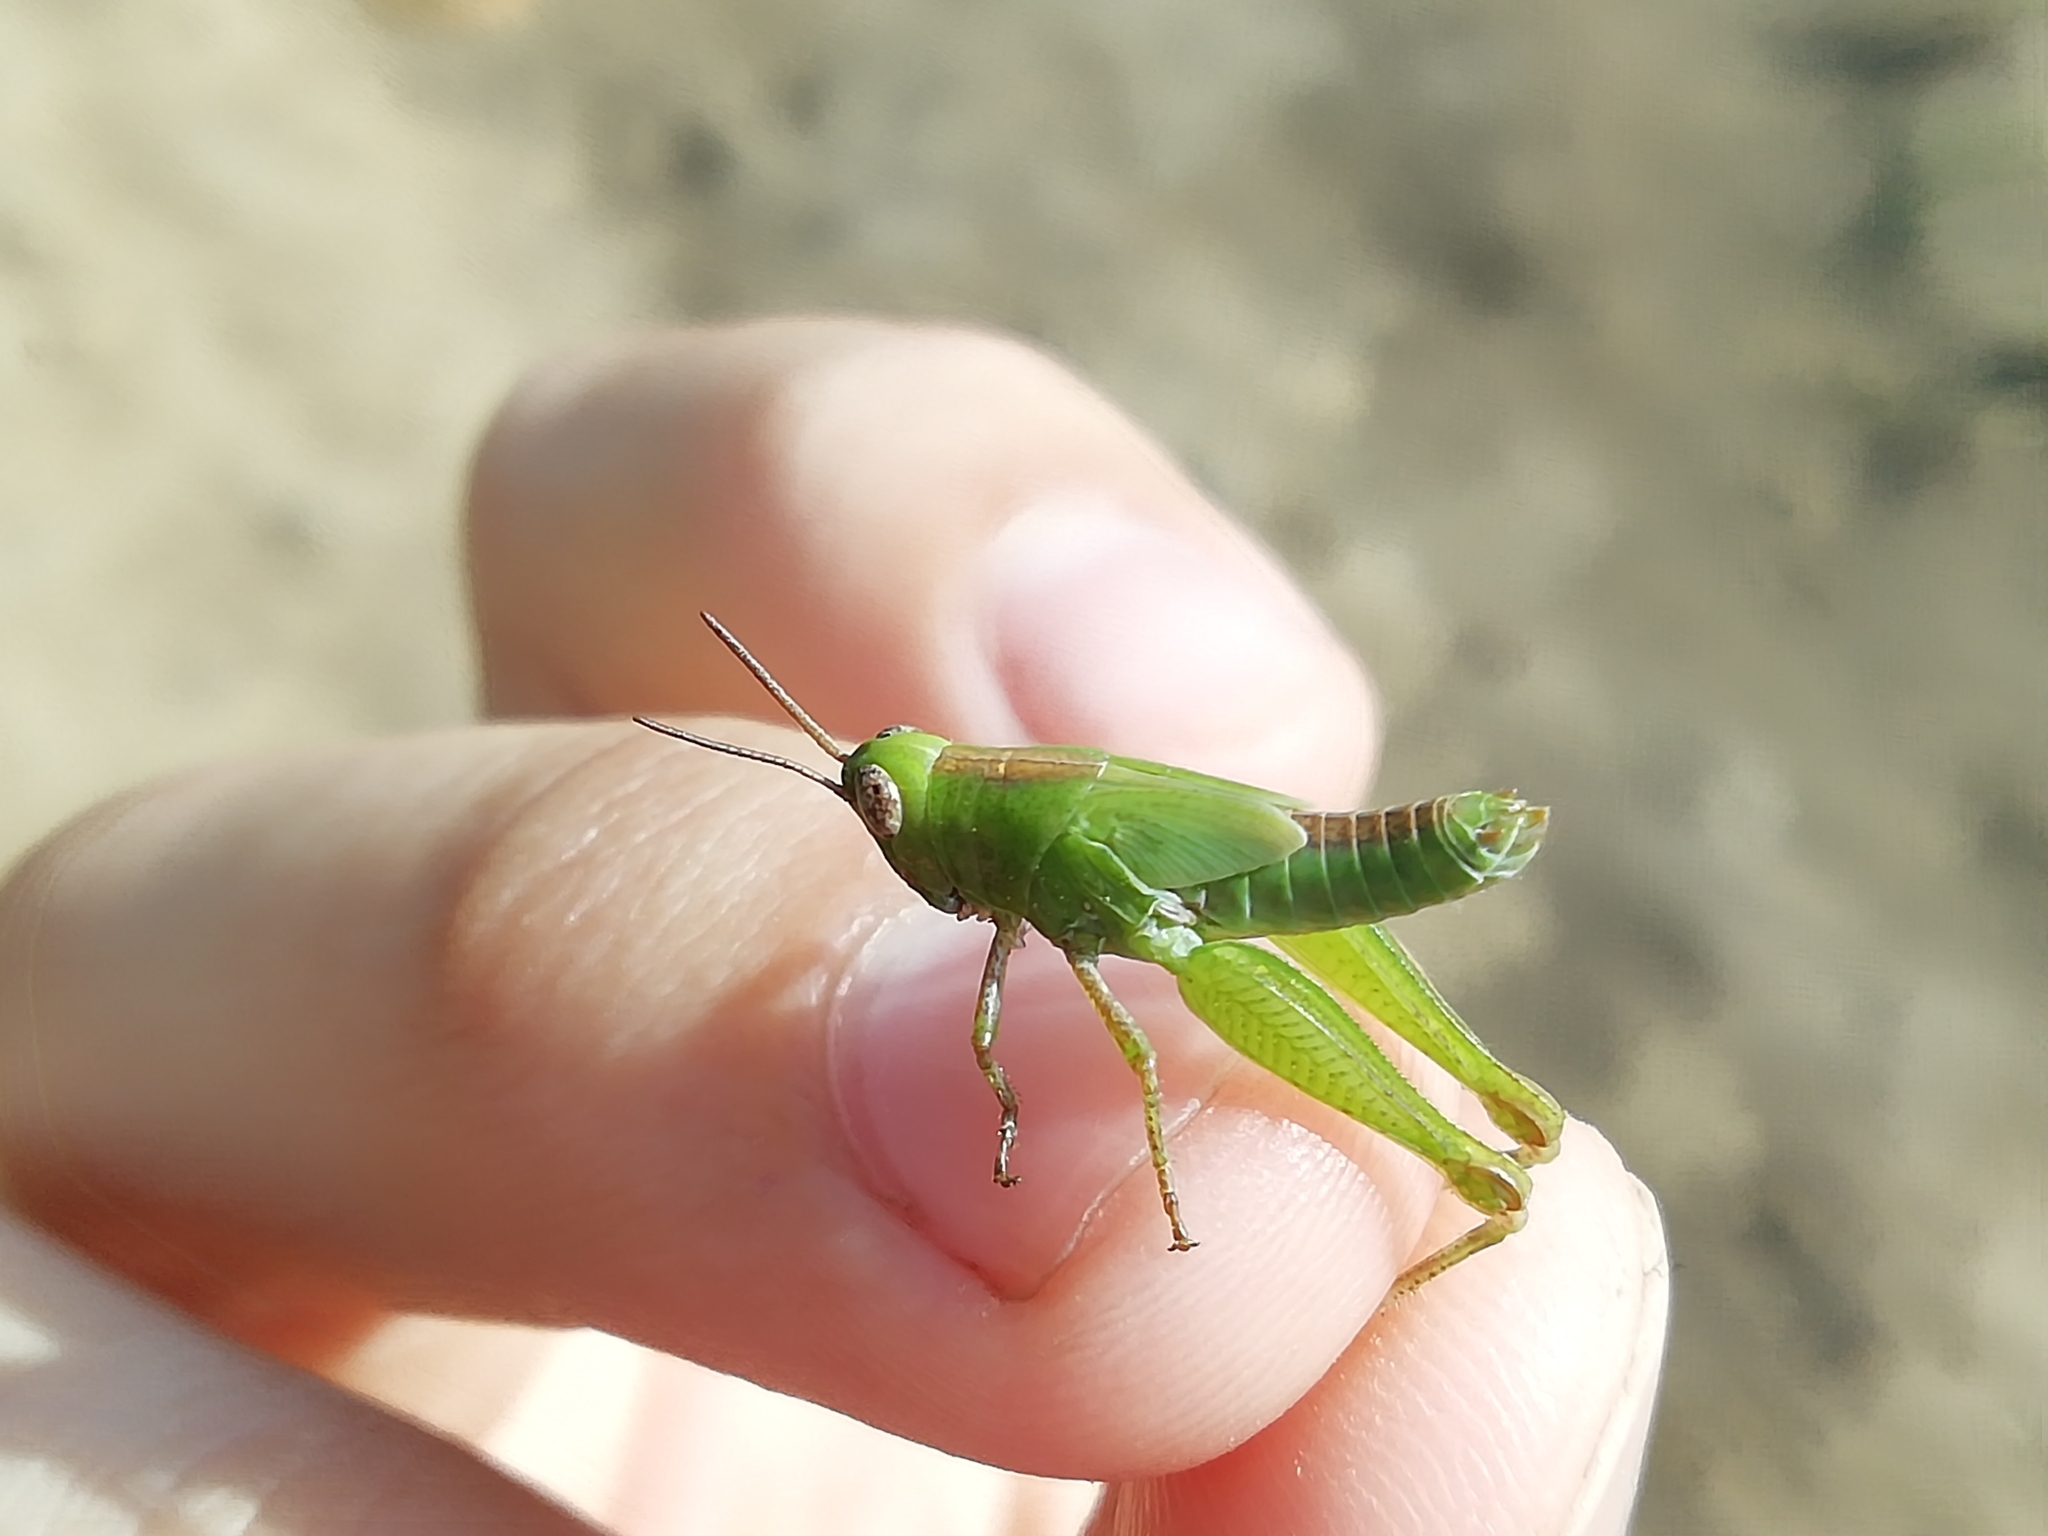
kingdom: Animalia
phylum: Arthropoda
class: Insecta
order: Orthoptera
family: Acrididae
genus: Aiolopus
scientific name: Aiolopus thalassinus
